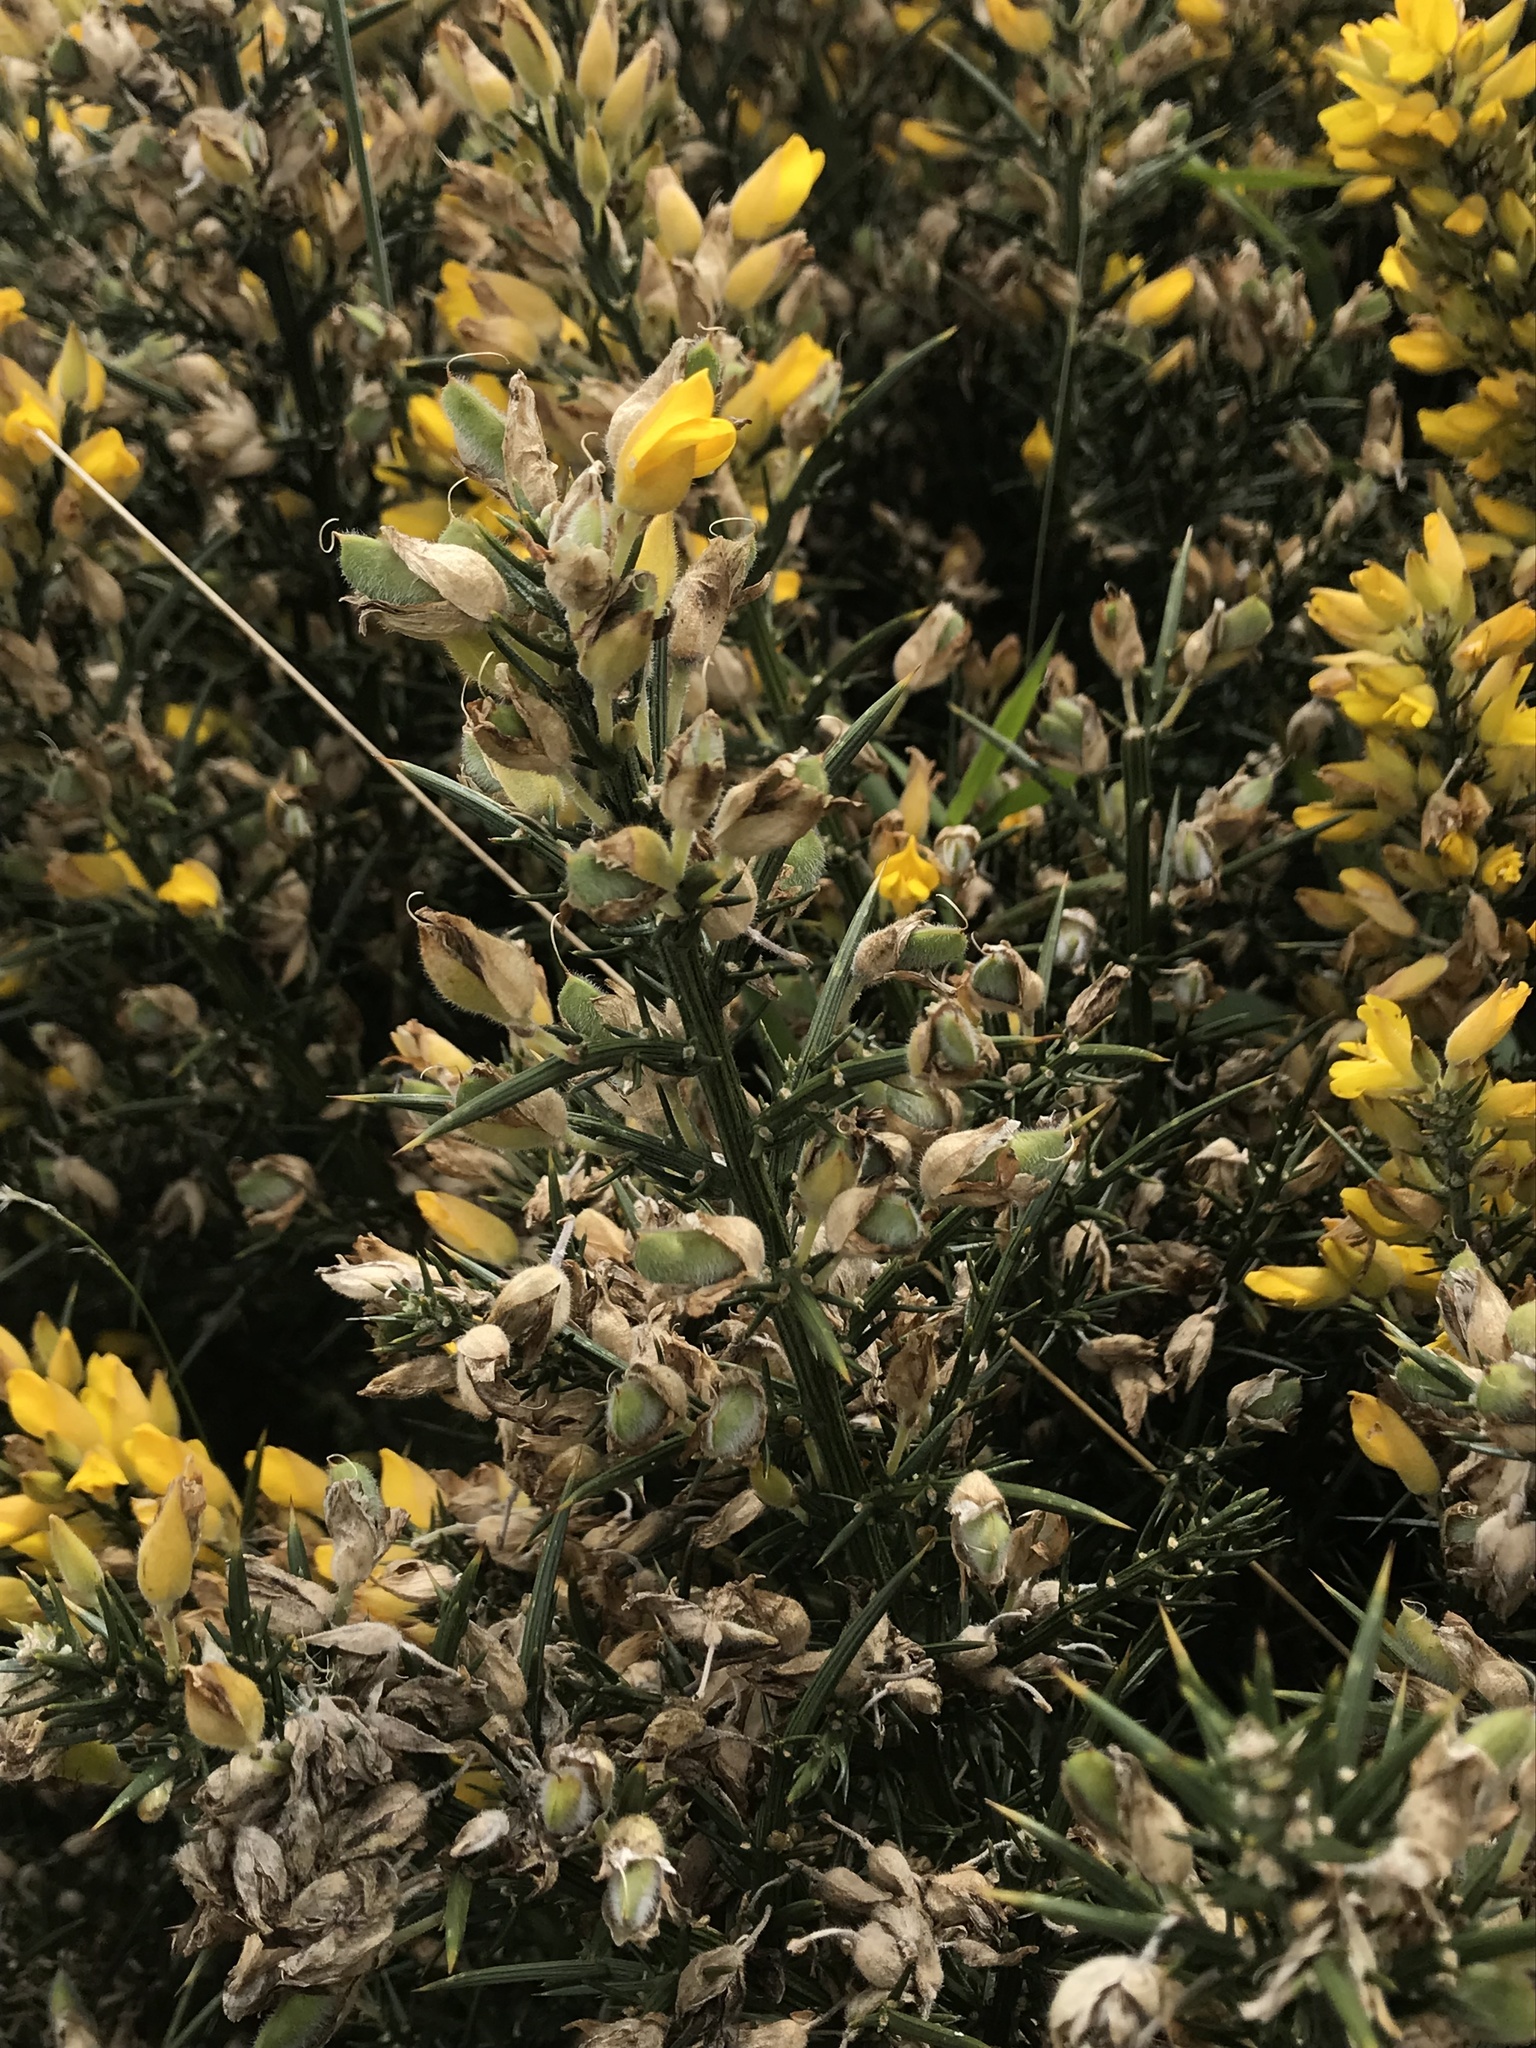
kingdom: Plantae
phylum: Tracheophyta
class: Magnoliopsida
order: Fabales
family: Fabaceae
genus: Ulex
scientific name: Ulex europaeus
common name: Common gorse
